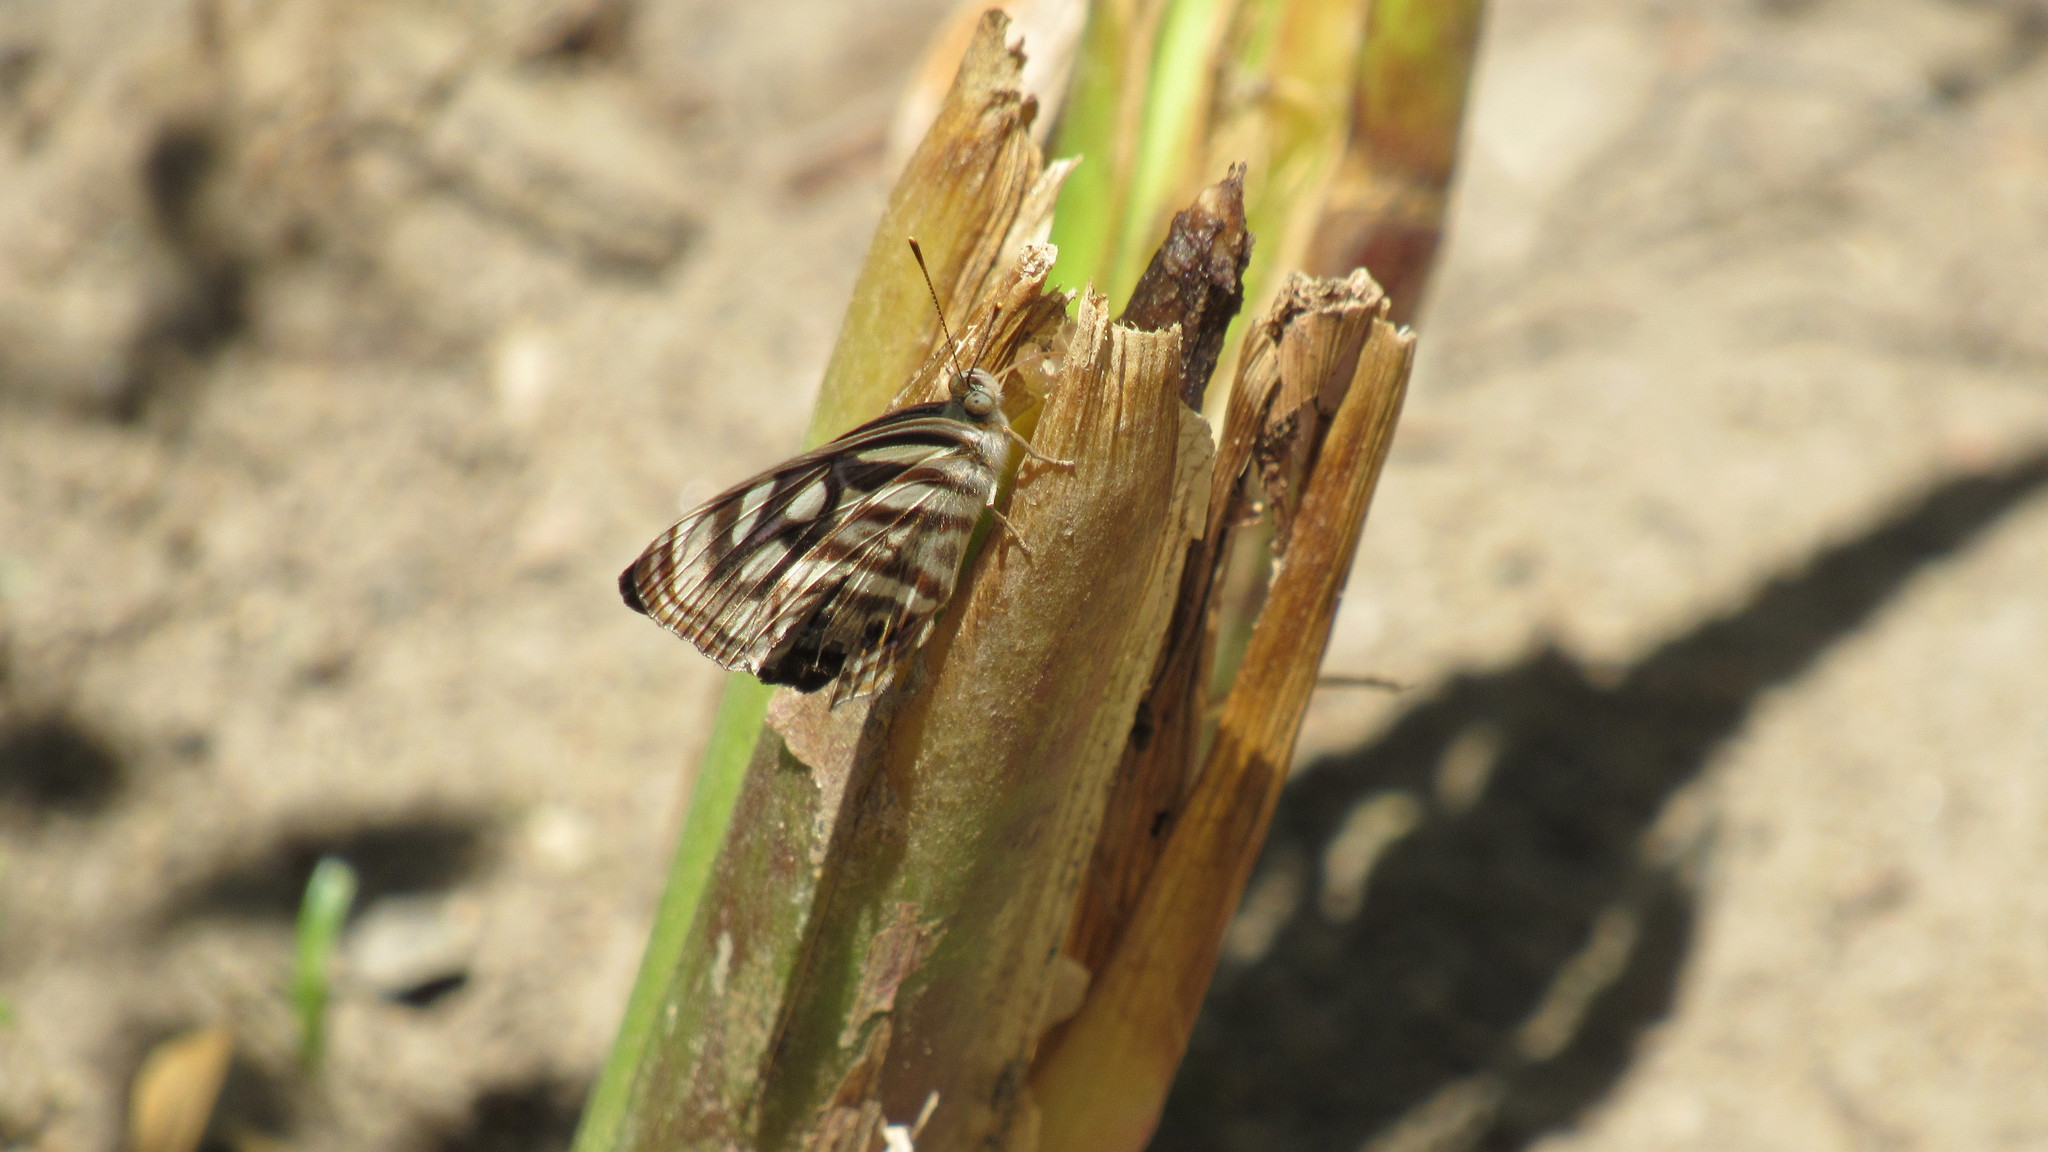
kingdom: Animalia
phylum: Arthropoda
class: Insecta
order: Lepidoptera
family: Nymphalidae
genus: Dynamine
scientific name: Dynamine mylitta
